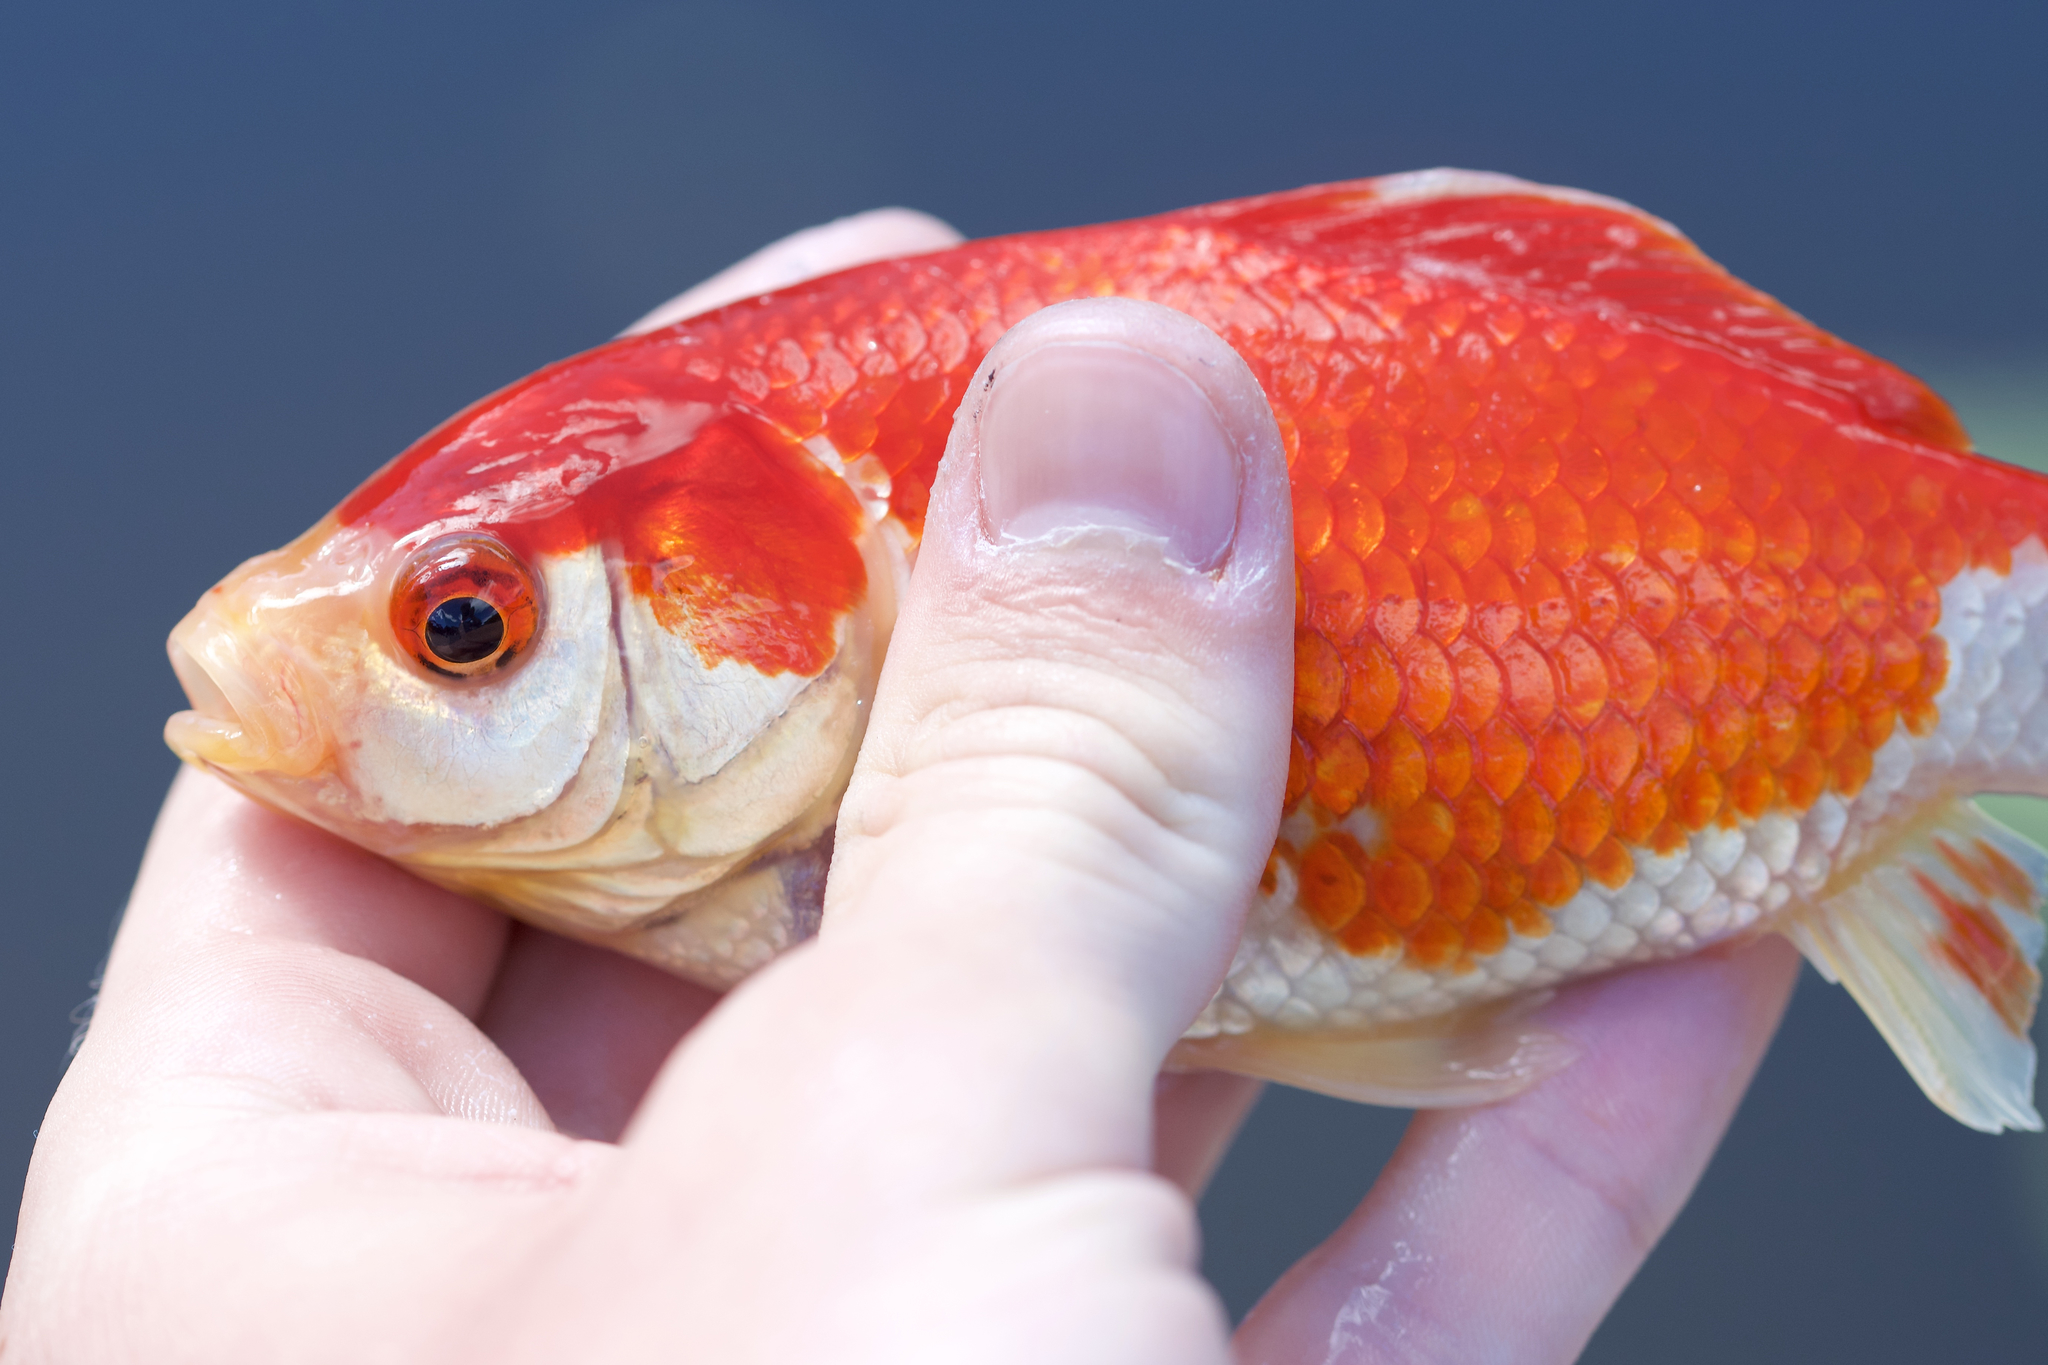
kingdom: Animalia
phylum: Chordata
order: Cypriniformes
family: Cyprinidae
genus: Carassius
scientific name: Carassius auratus
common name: Goldfish
